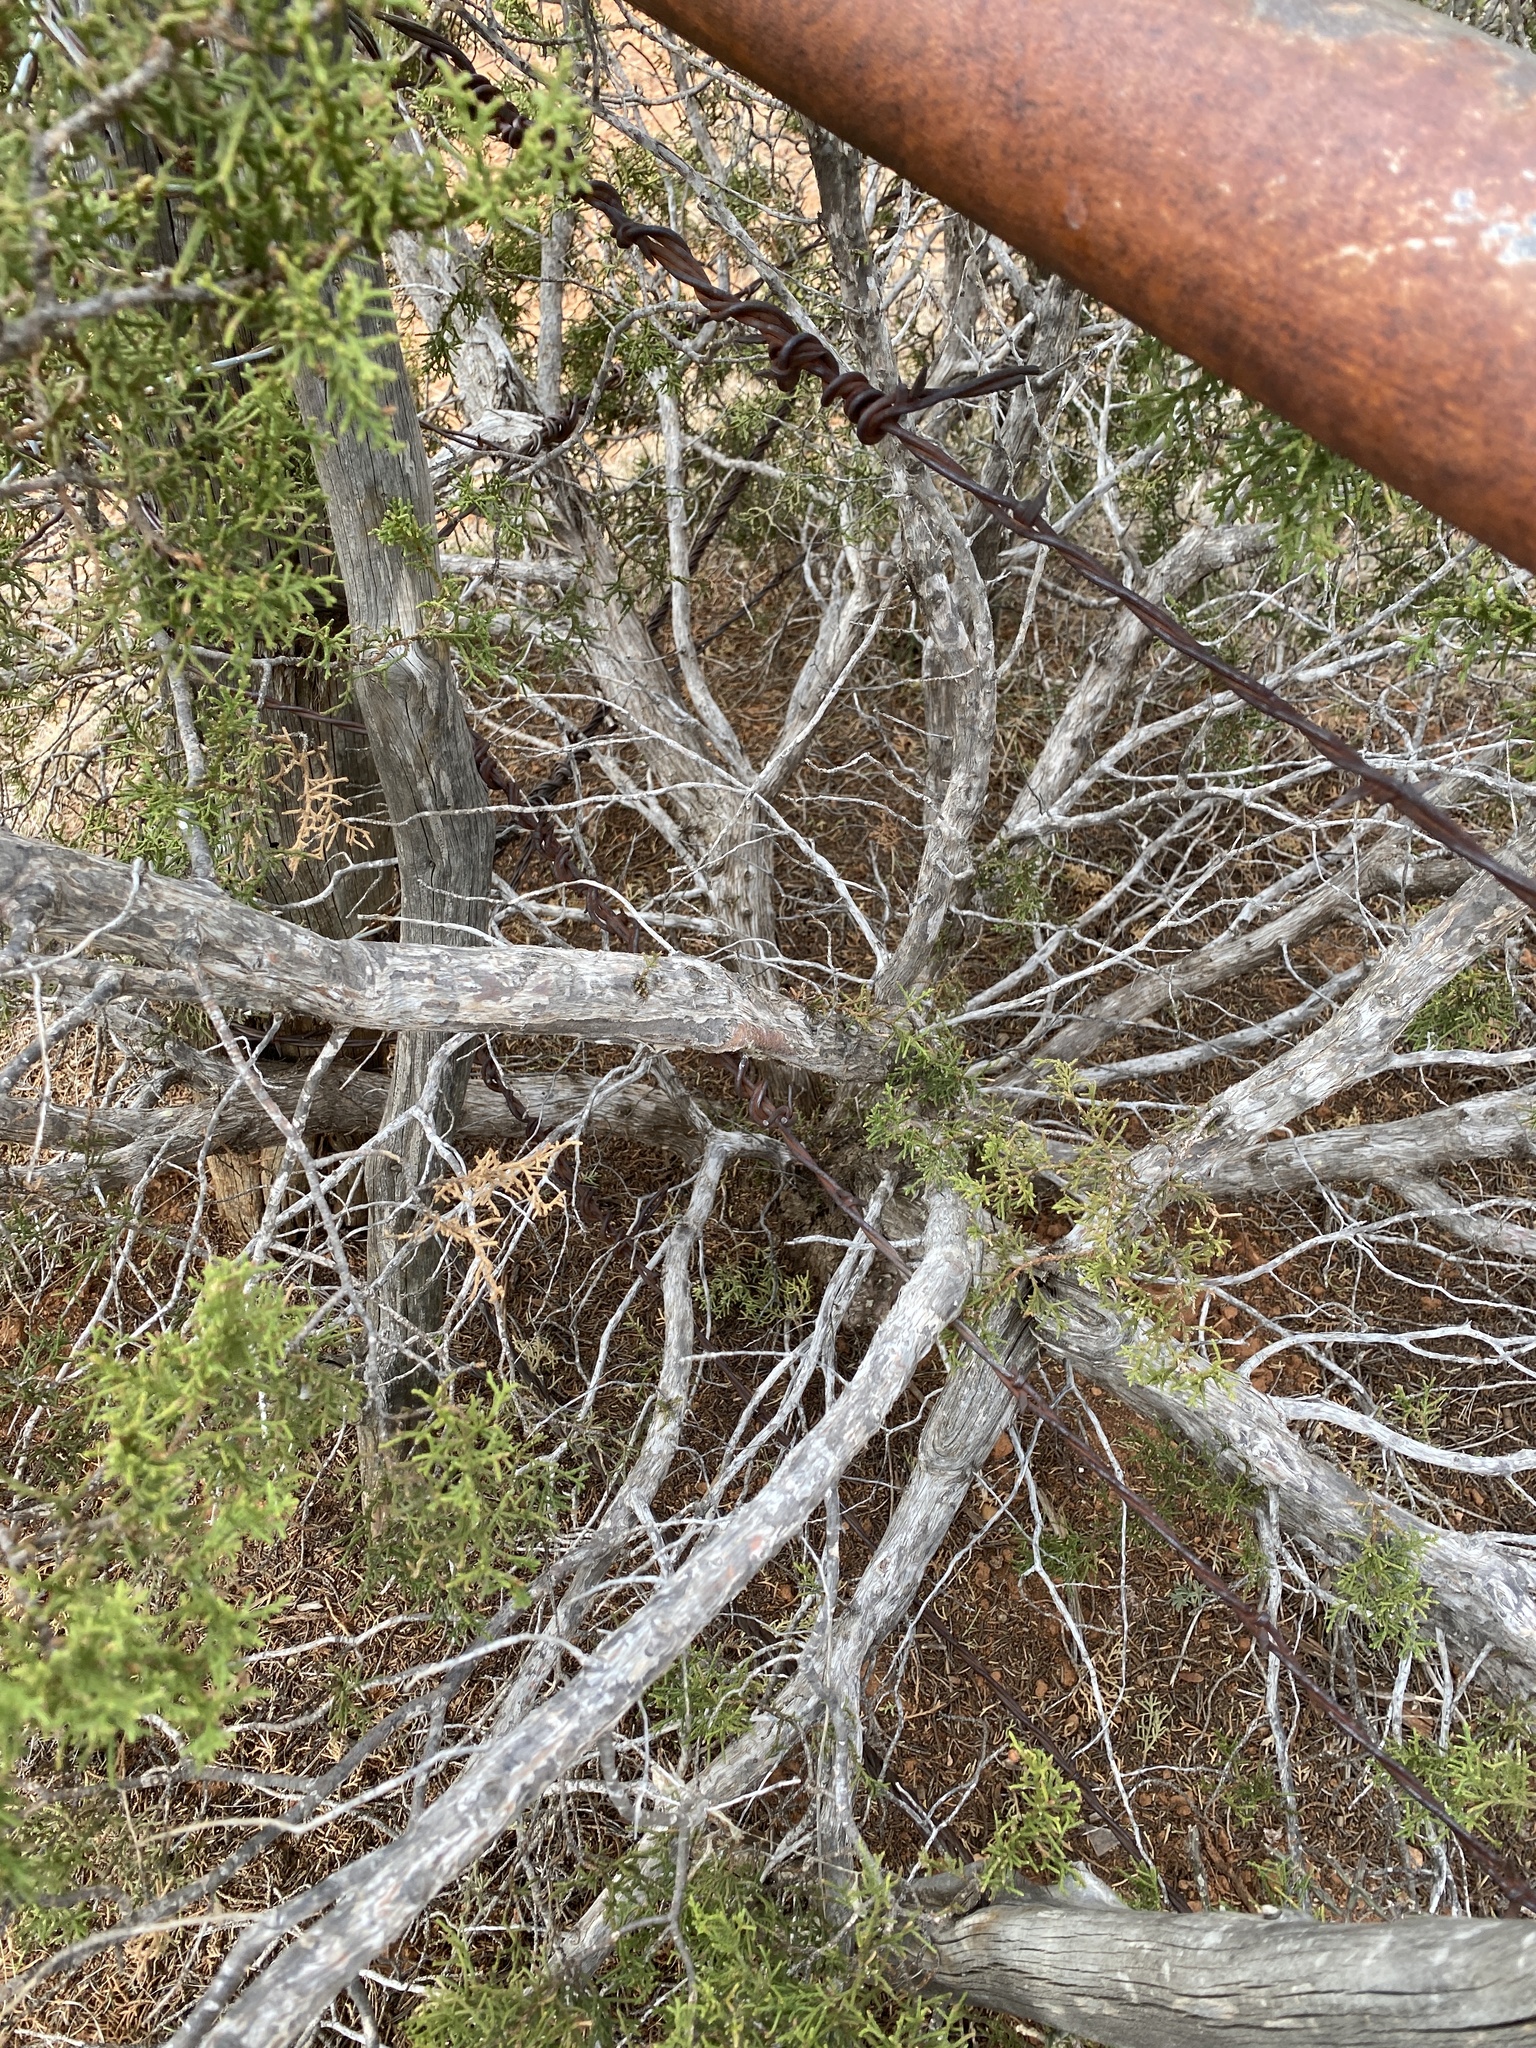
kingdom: Plantae
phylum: Tracheophyta
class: Pinopsida
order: Pinales
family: Cupressaceae
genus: Juniperus
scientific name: Juniperus pinchotii
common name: Pinchot juniper
